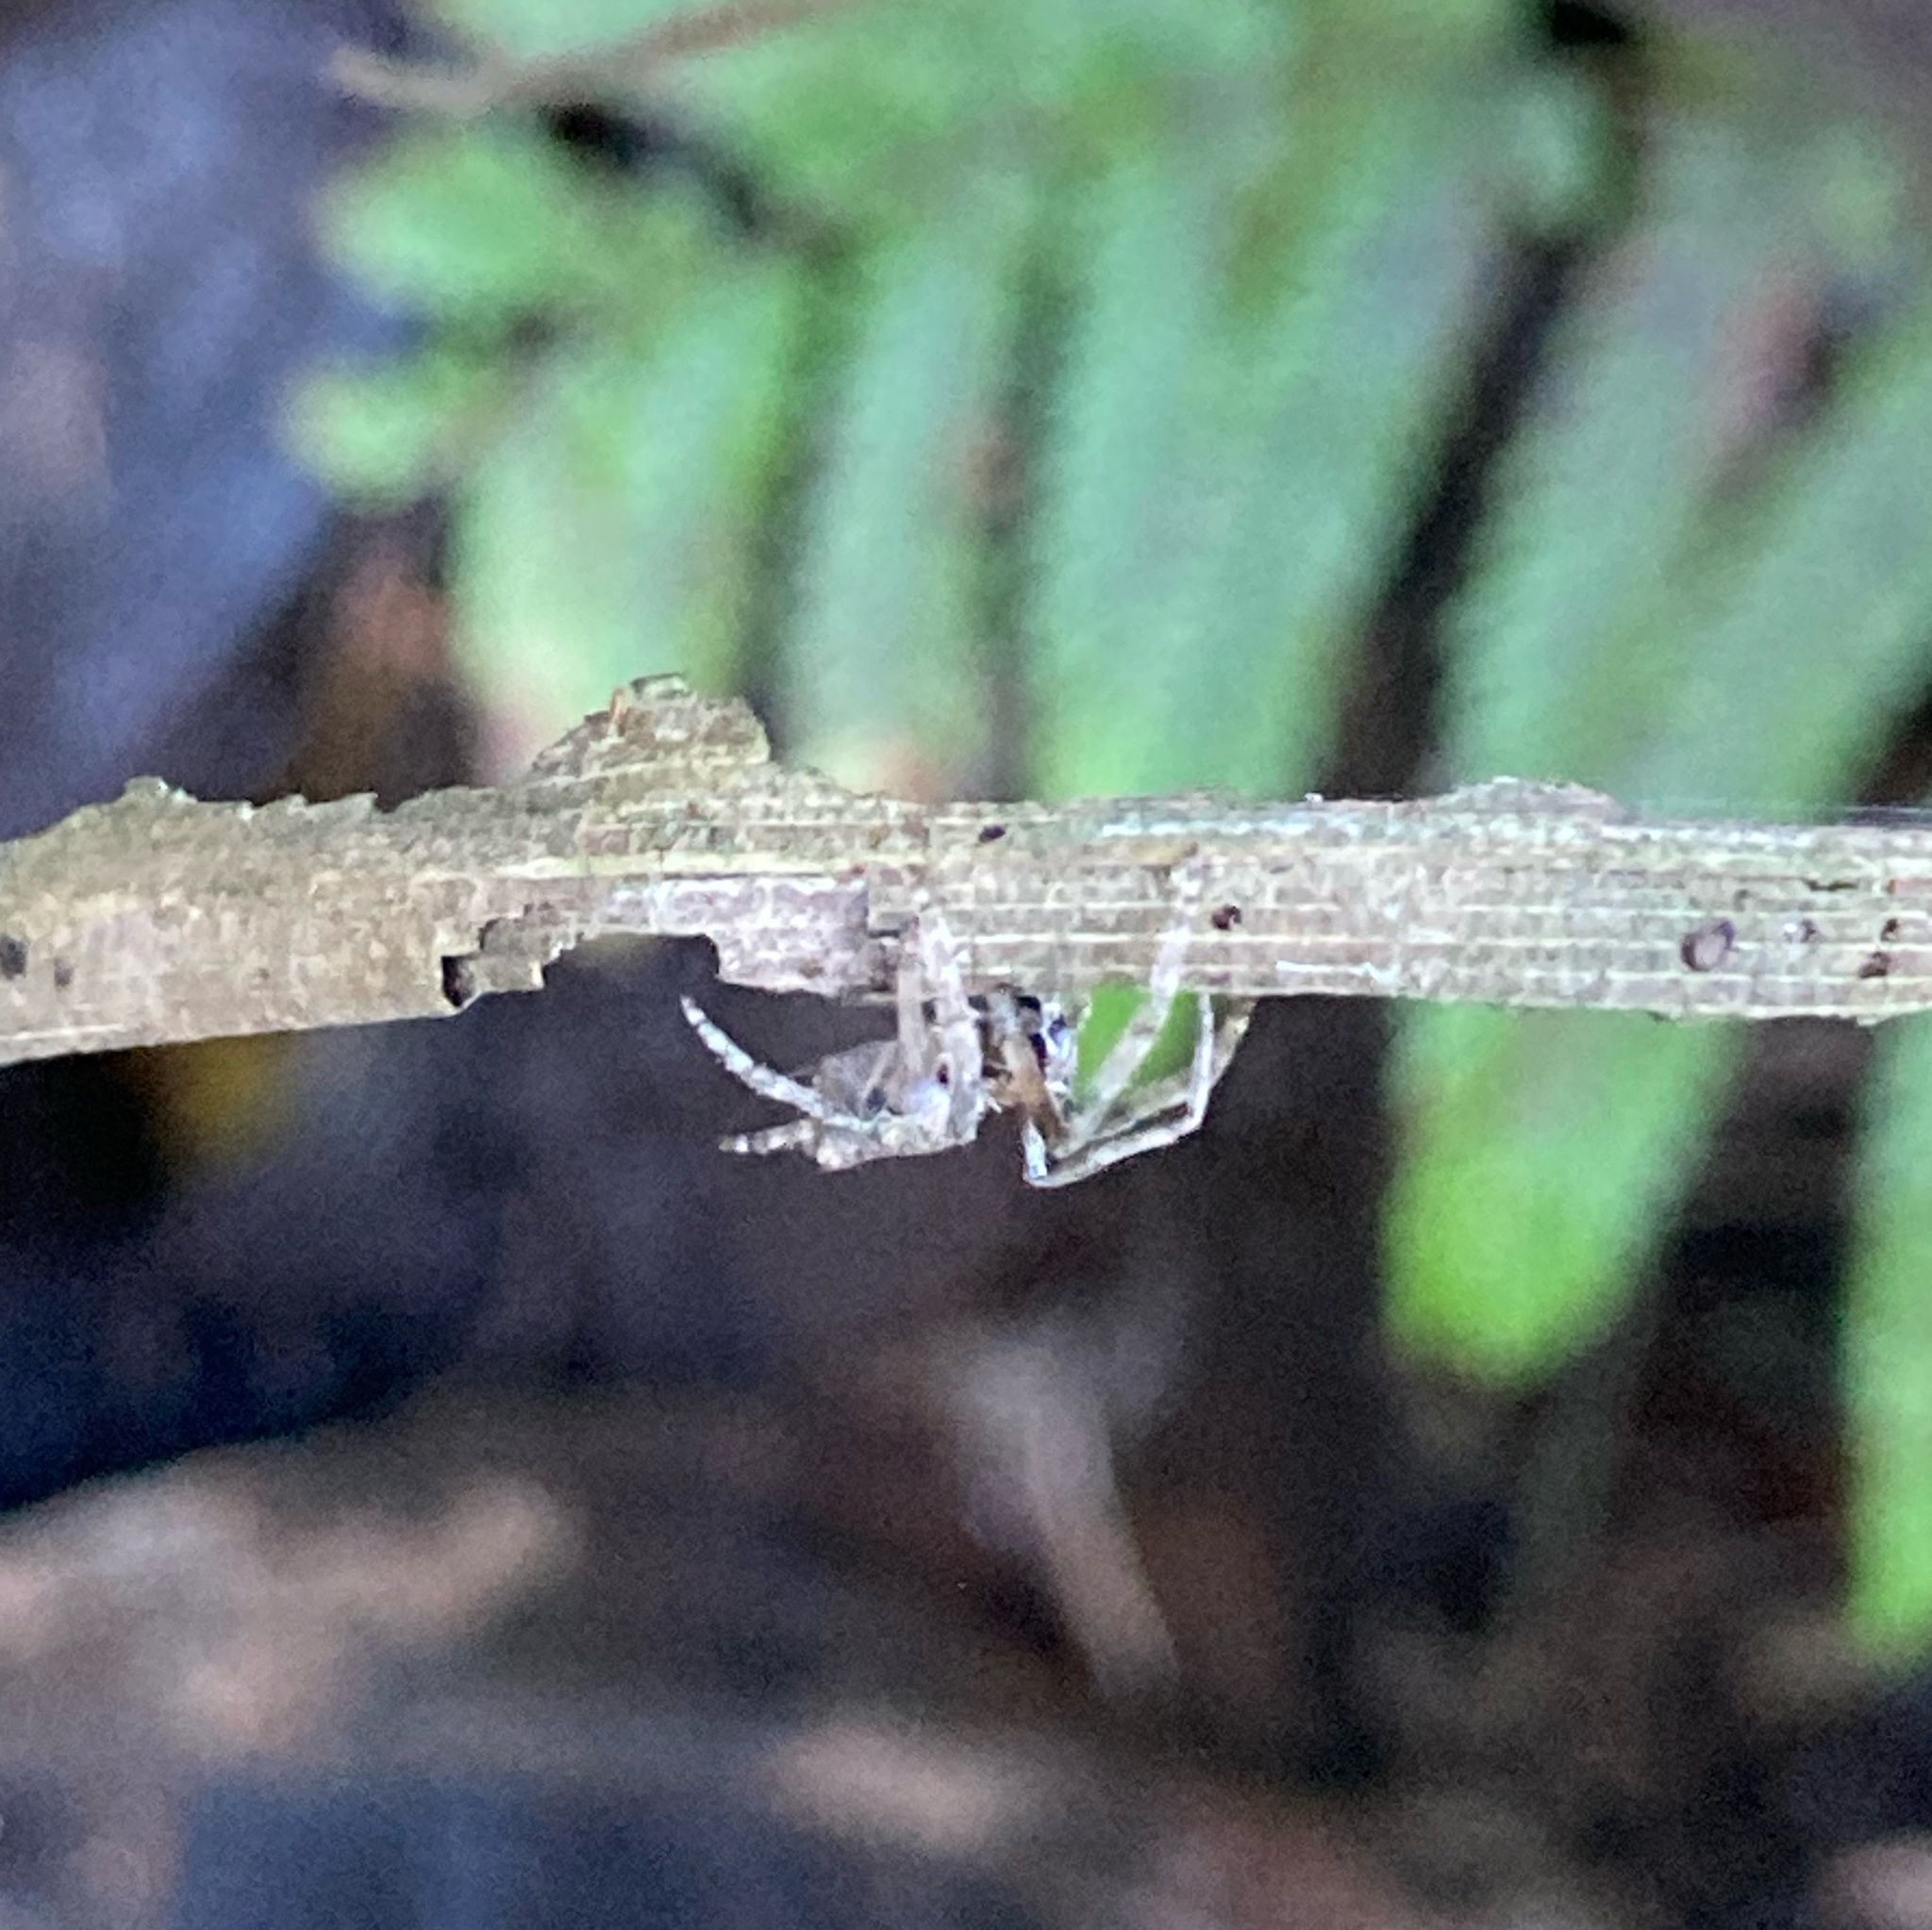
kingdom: Animalia
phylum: Arthropoda
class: Arachnida
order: Araneae
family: Araneidae
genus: Eriophora
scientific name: Eriophora pustulosa
